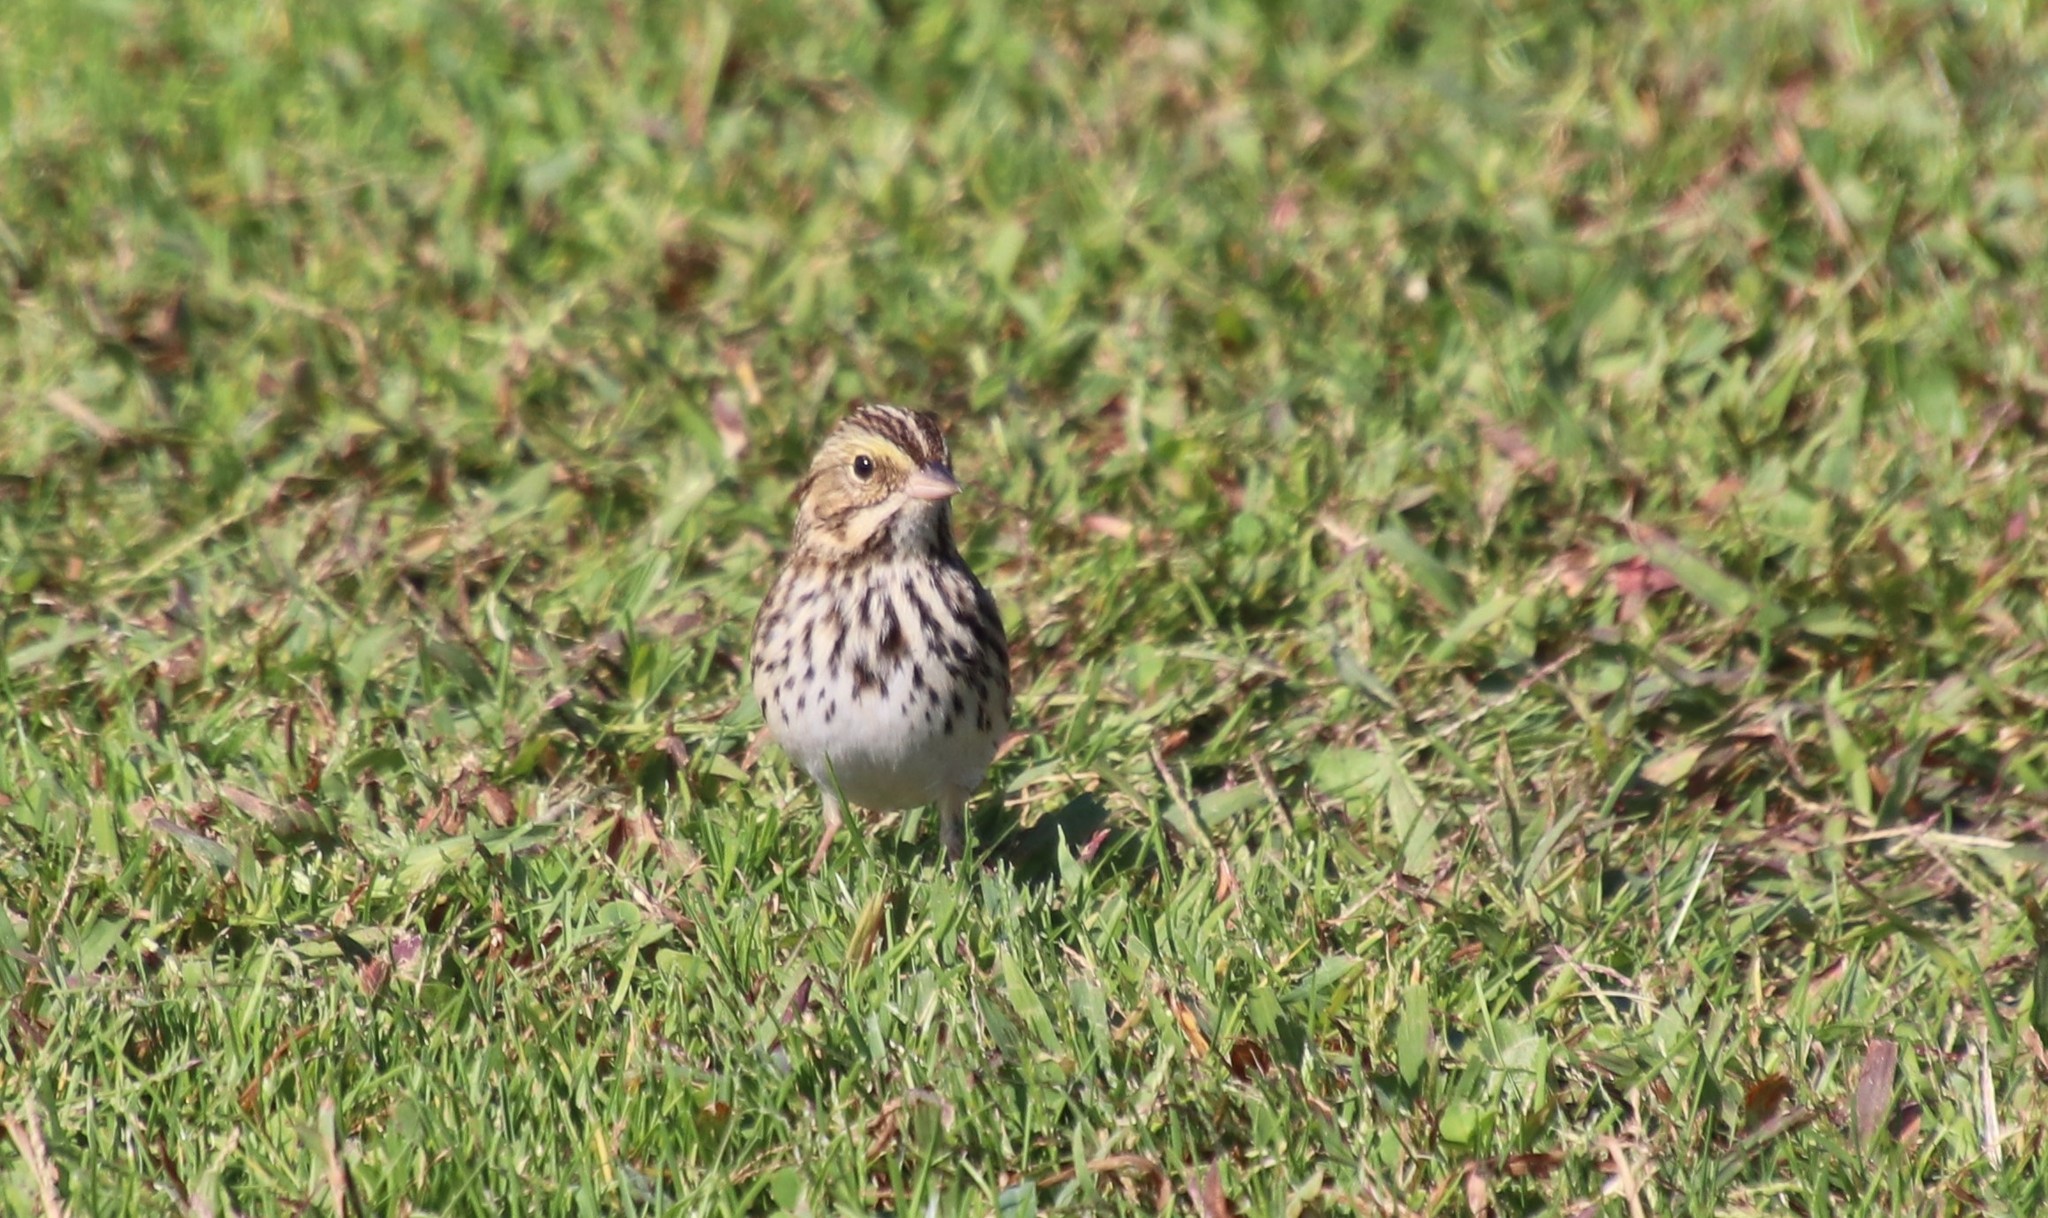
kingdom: Animalia
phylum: Chordata
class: Aves
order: Passeriformes
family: Passerellidae
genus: Passerculus
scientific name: Passerculus sandwichensis
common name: Savannah sparrow
